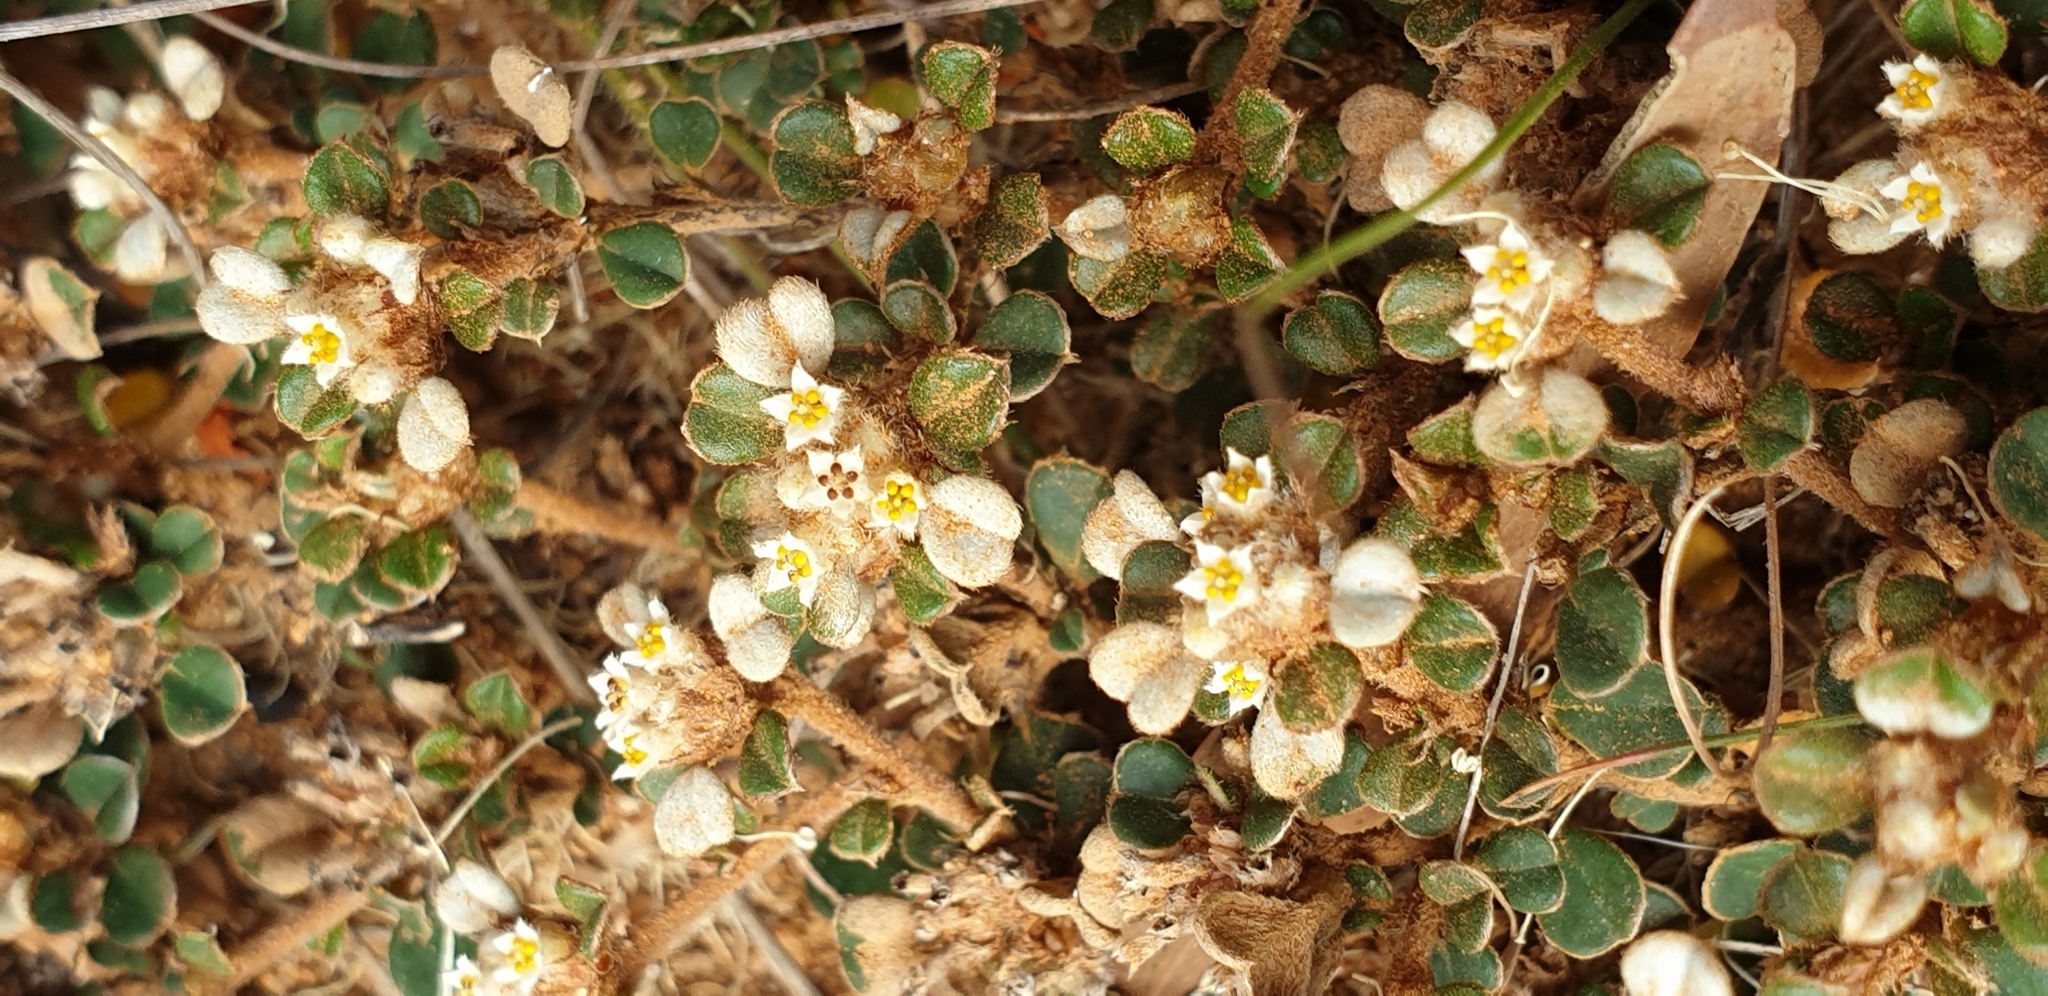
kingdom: Plantae
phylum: Tracheophyta
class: Magnoliopsida
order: Rosales
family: Rhamnaceae
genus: Cryptandra
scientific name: Cryptandra leucophracta
